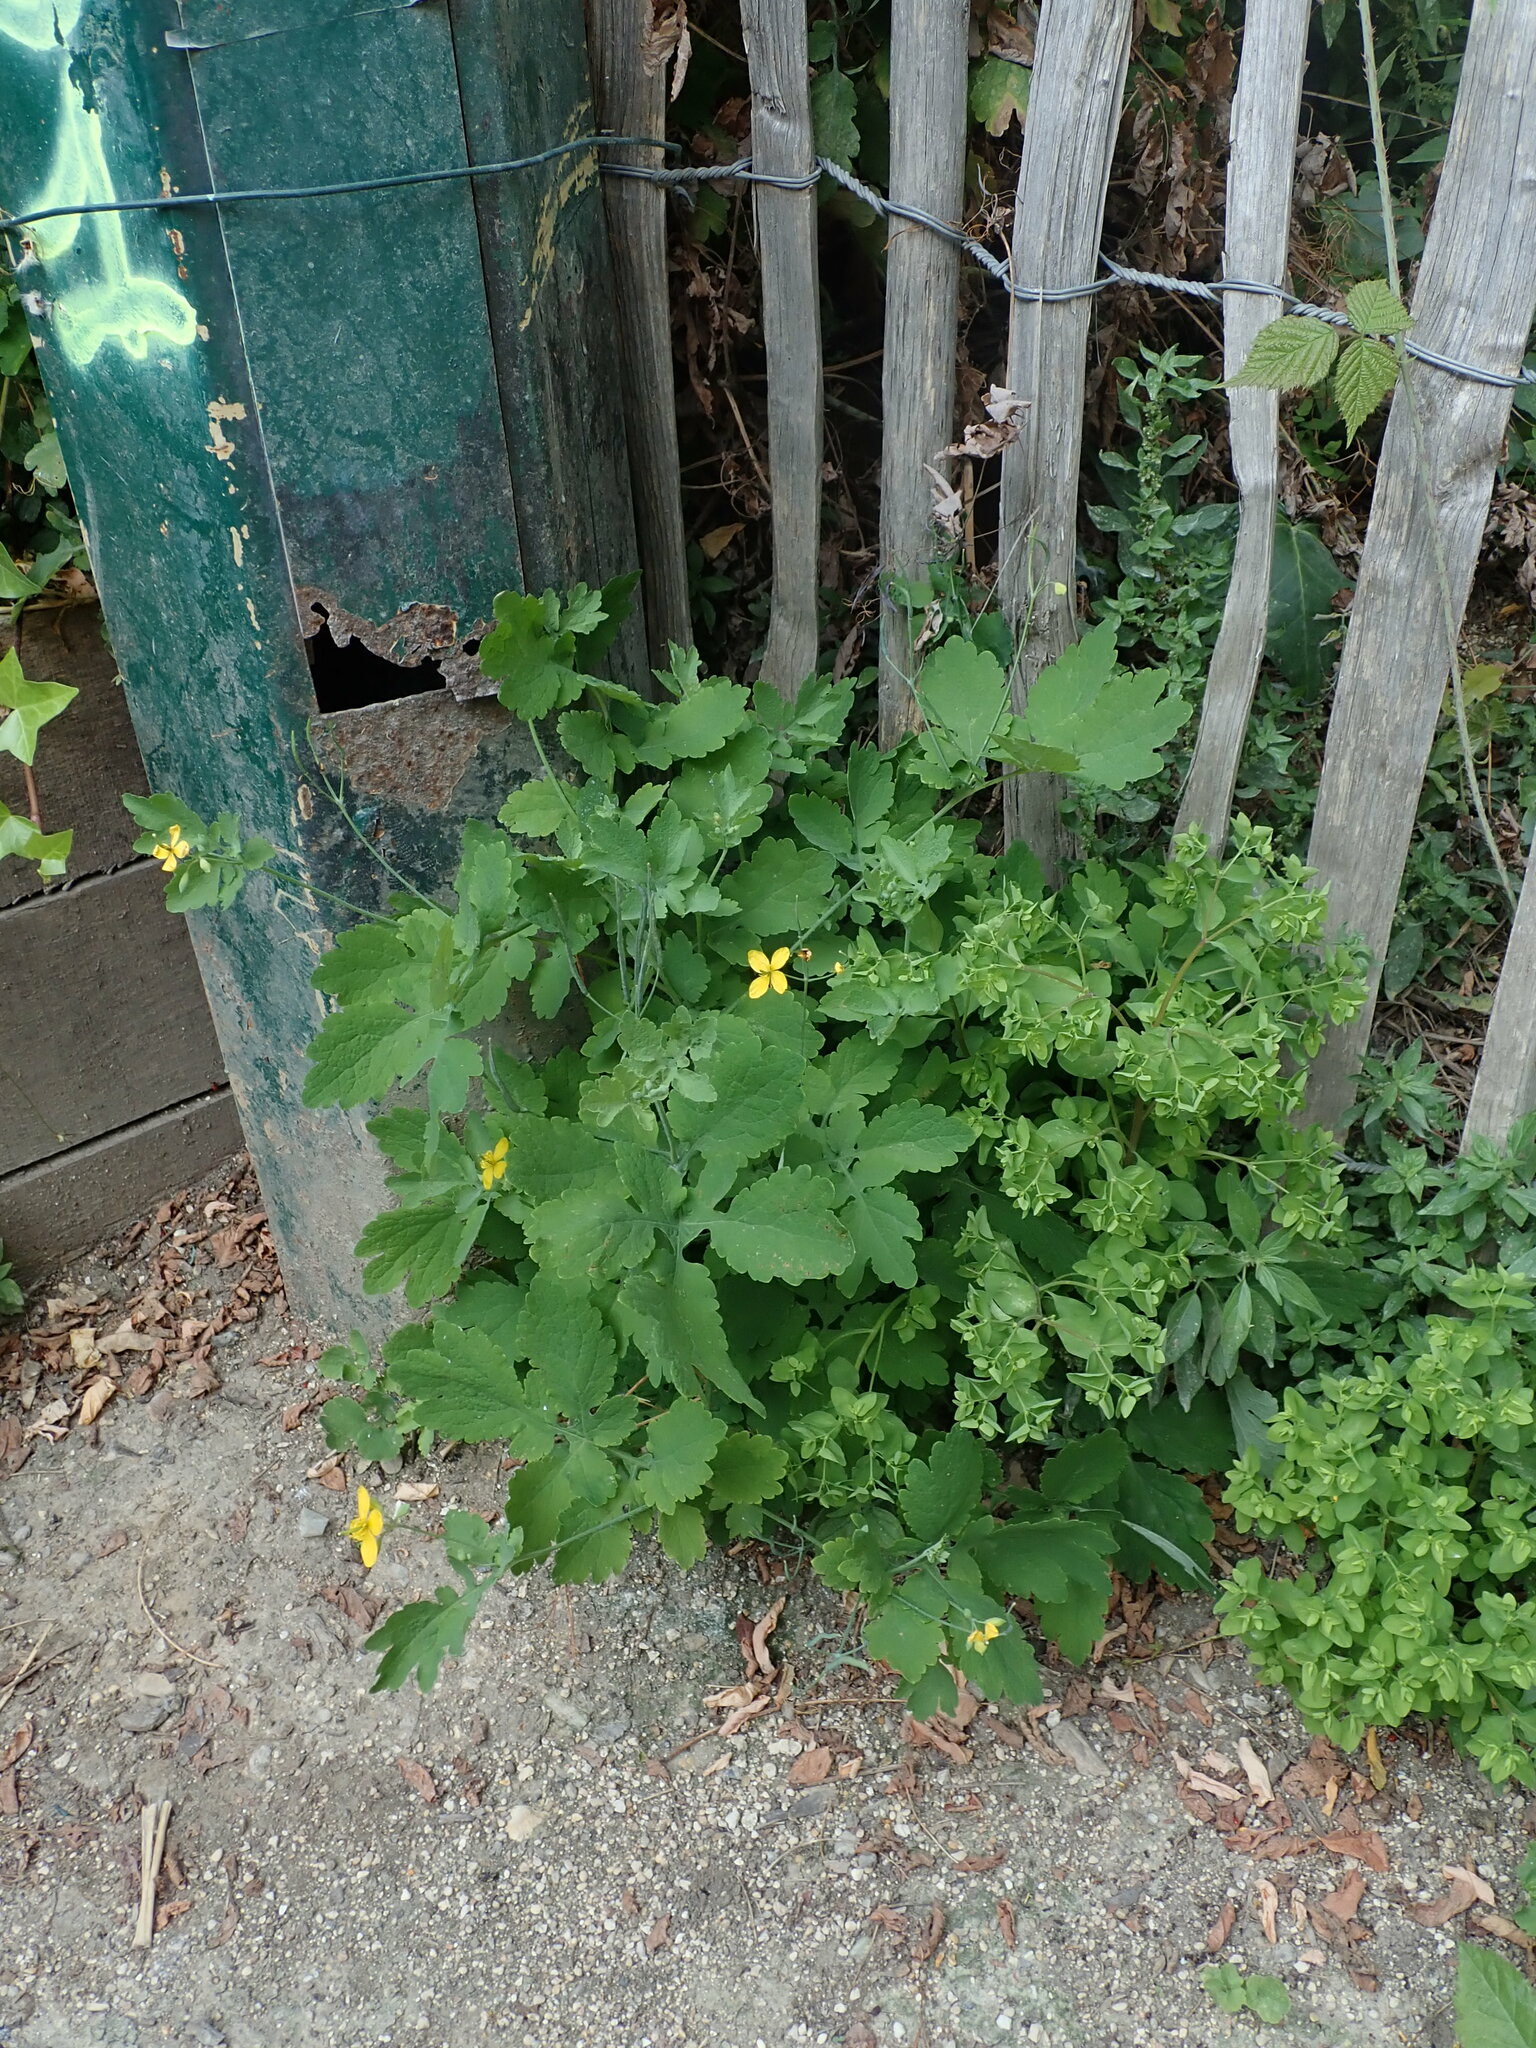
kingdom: Plantae
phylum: Tracheophyta
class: Magnoliopsida
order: Ranunculales
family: Papaveraceae
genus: Chelidonium
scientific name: Chelidonium majus
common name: Greater celandine
